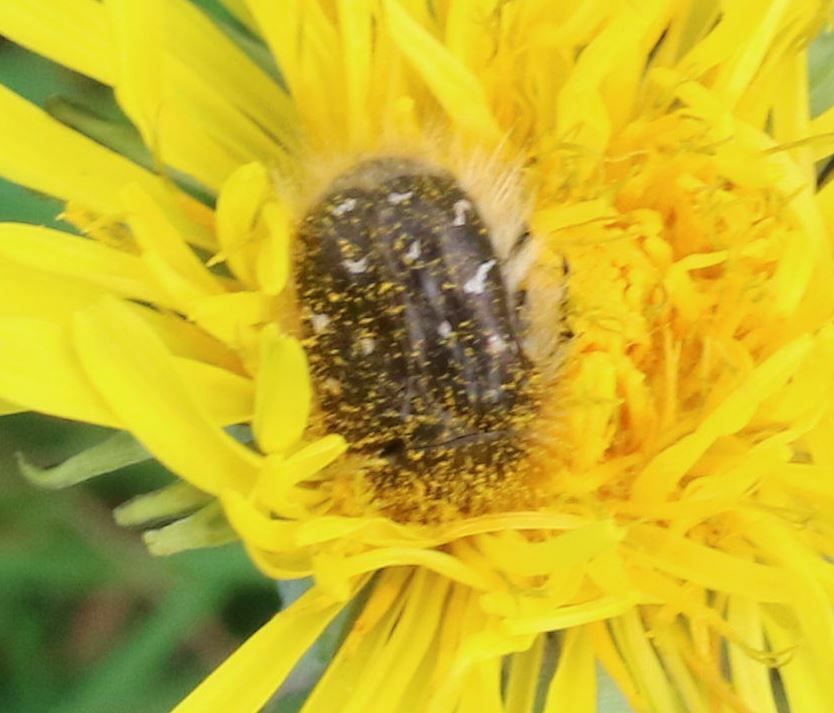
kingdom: Animalia
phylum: Arthropoda
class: Insecta
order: Coleoptera
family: Scarabaeidae
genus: Tropinota
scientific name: Tropinota hirta
